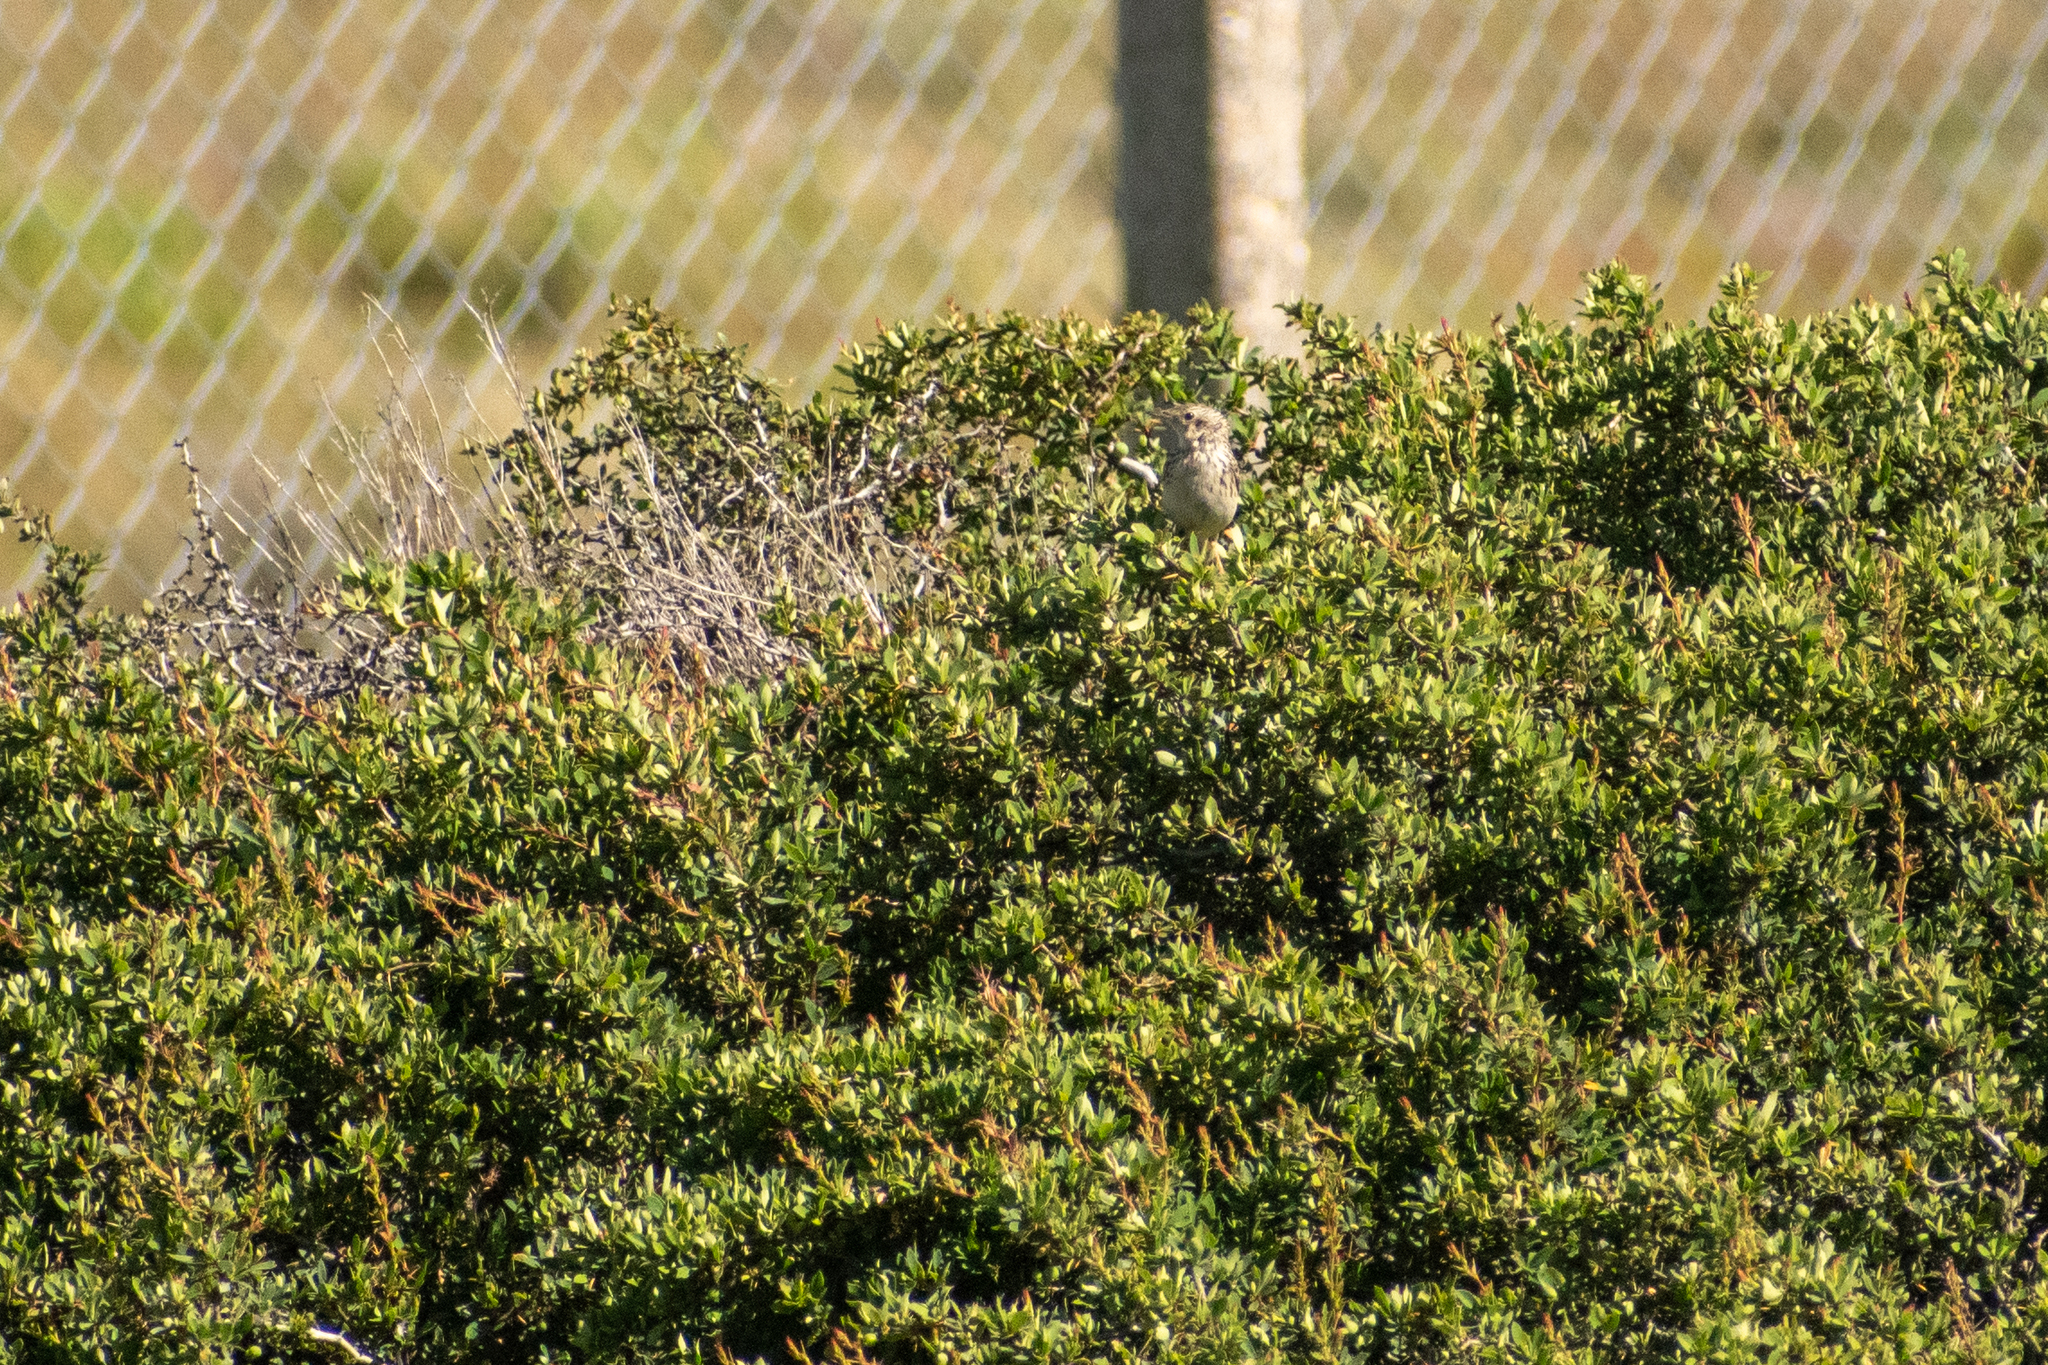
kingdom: Animalia
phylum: Chordata
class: Aves
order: Passeriformes
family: Motacillidae
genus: Anthus
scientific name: Anthus hellmayri
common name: Hellmayr's pipit
